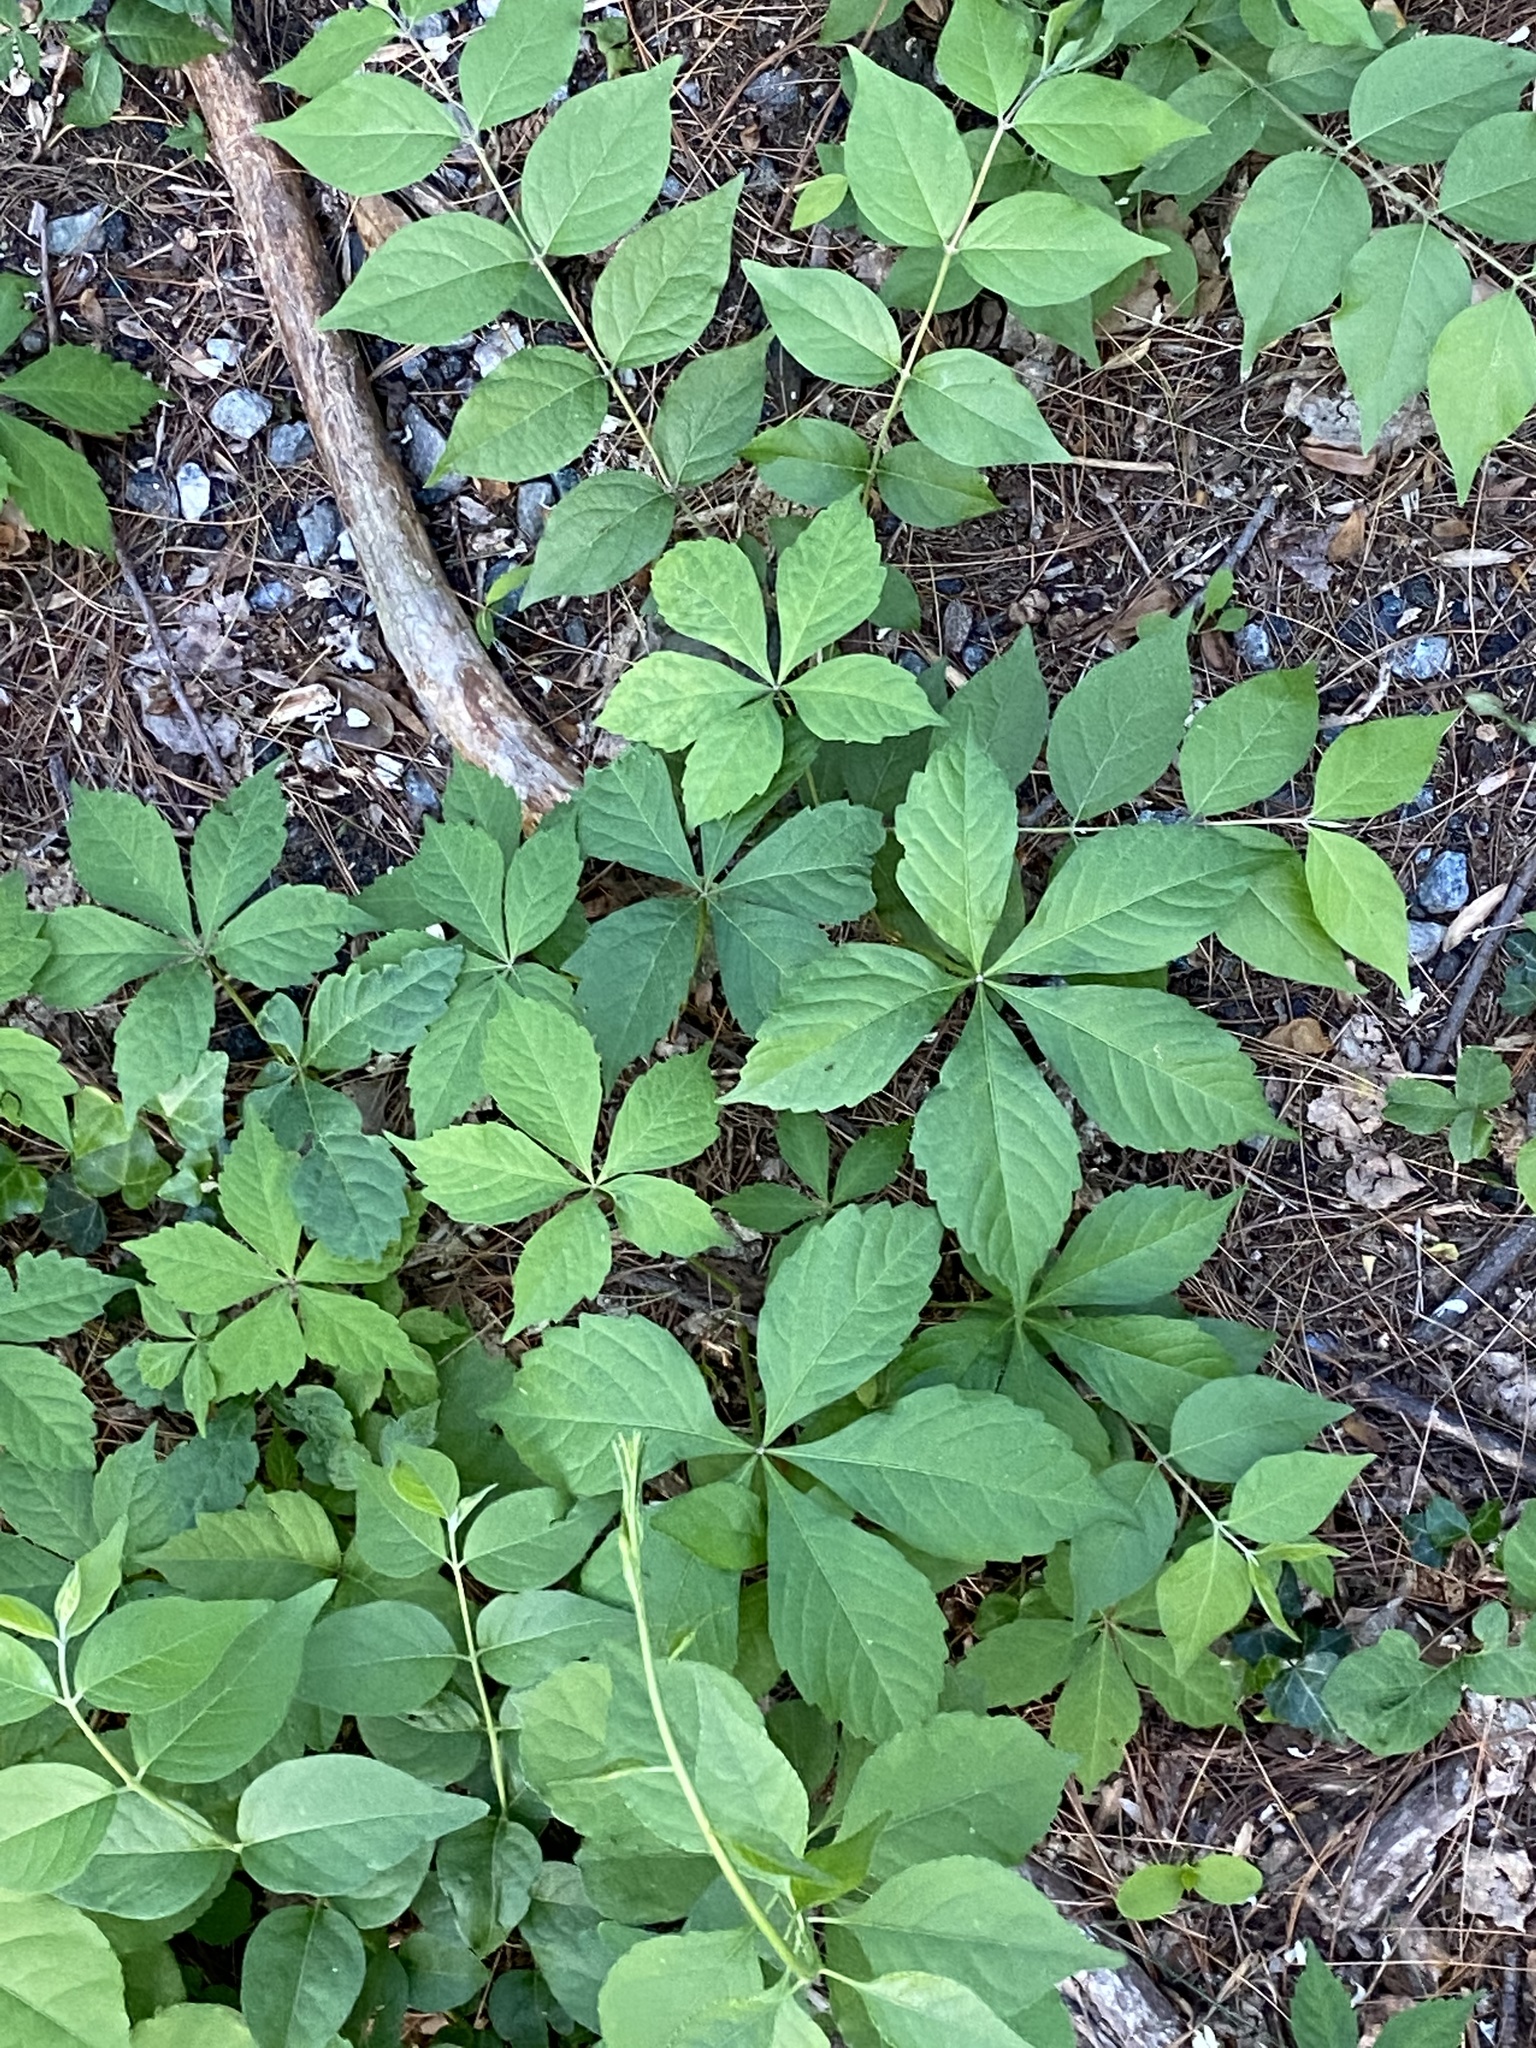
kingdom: Plantae
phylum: Tracheophyta
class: Magnoliopsida
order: Vitales
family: Vitaceae
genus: Parthenocissus
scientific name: Parthenocissus quinquefolia
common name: Virginia-creeper
